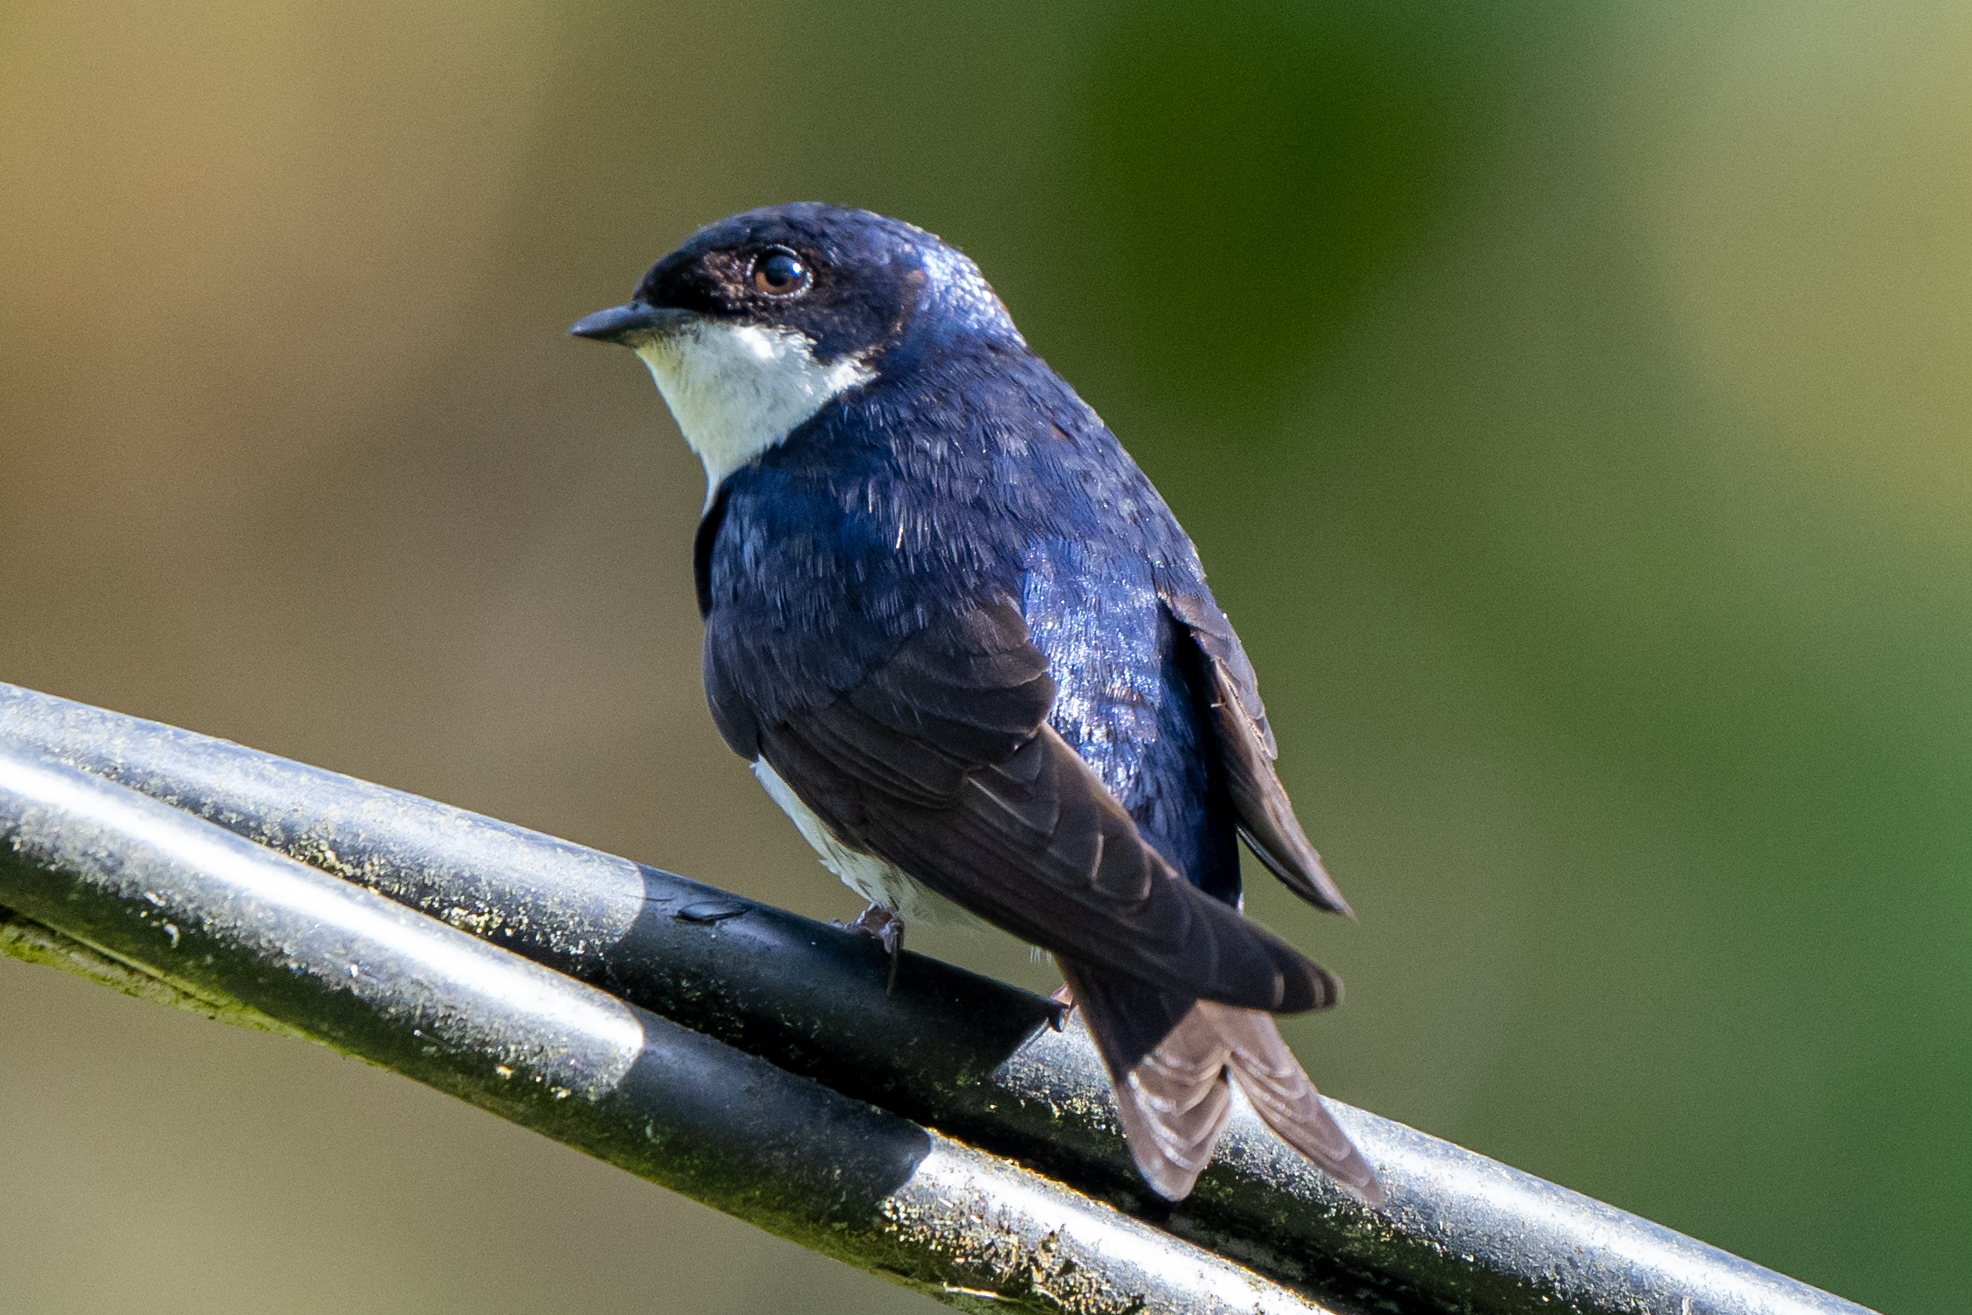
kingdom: Animalia
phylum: Chordata
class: Aves
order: Passeriformes
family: Hirundinidae
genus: Notiochelidon
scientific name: Notiochelidon cyanoleuca
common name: Blue-and-white swallow
